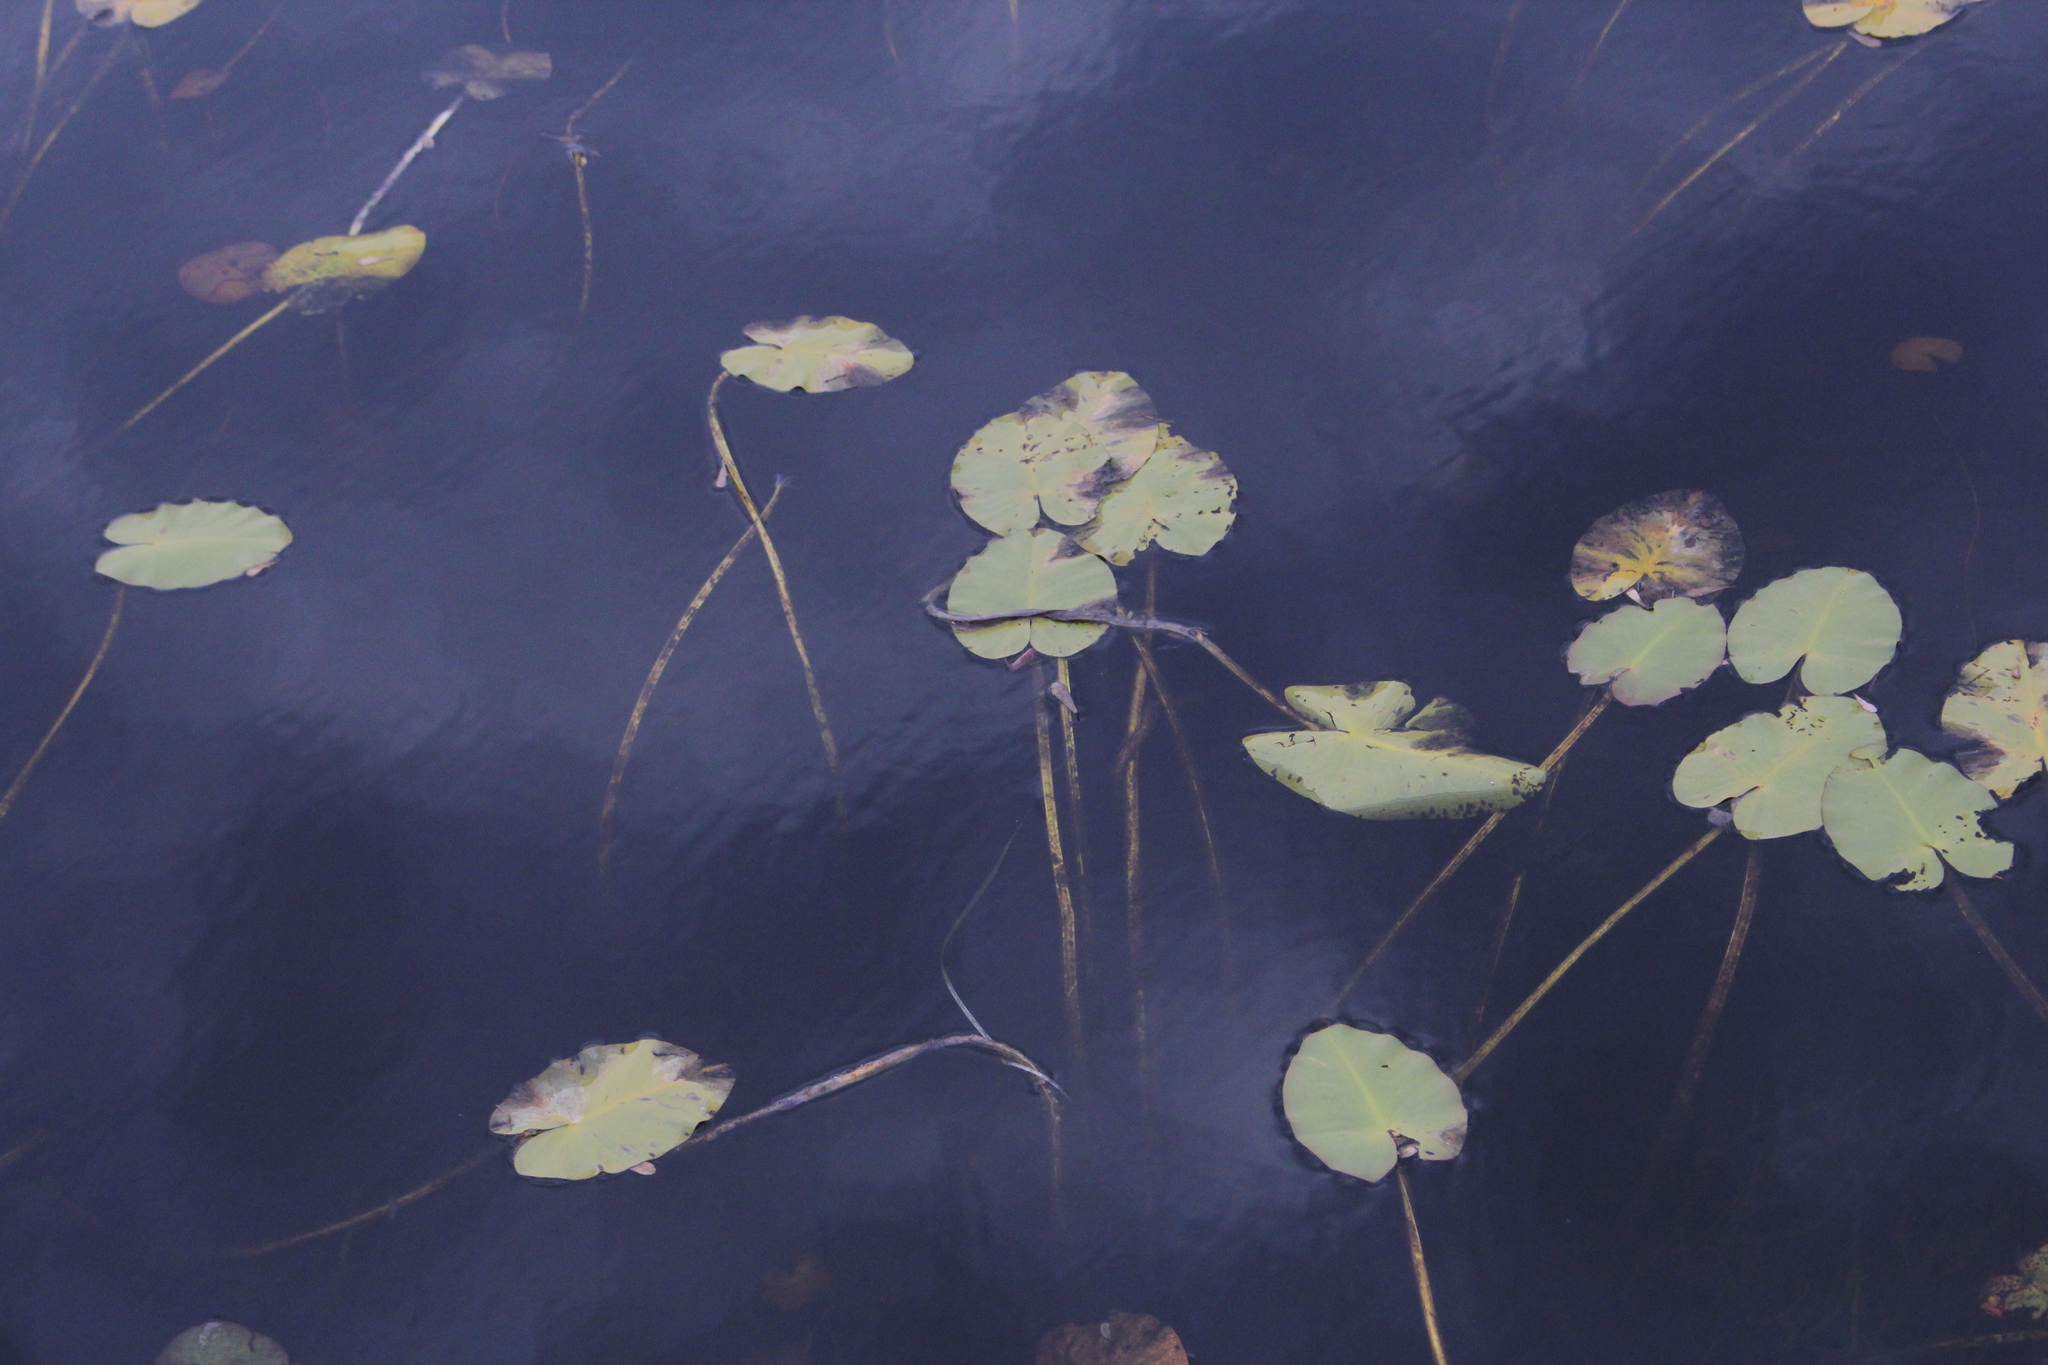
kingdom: Plantae
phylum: Tracheophyta
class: Magnoliopsida
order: Nymphaeales
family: Nymphaeaceae
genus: Nuphar
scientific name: Nuphar variegata
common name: Beaver-root
